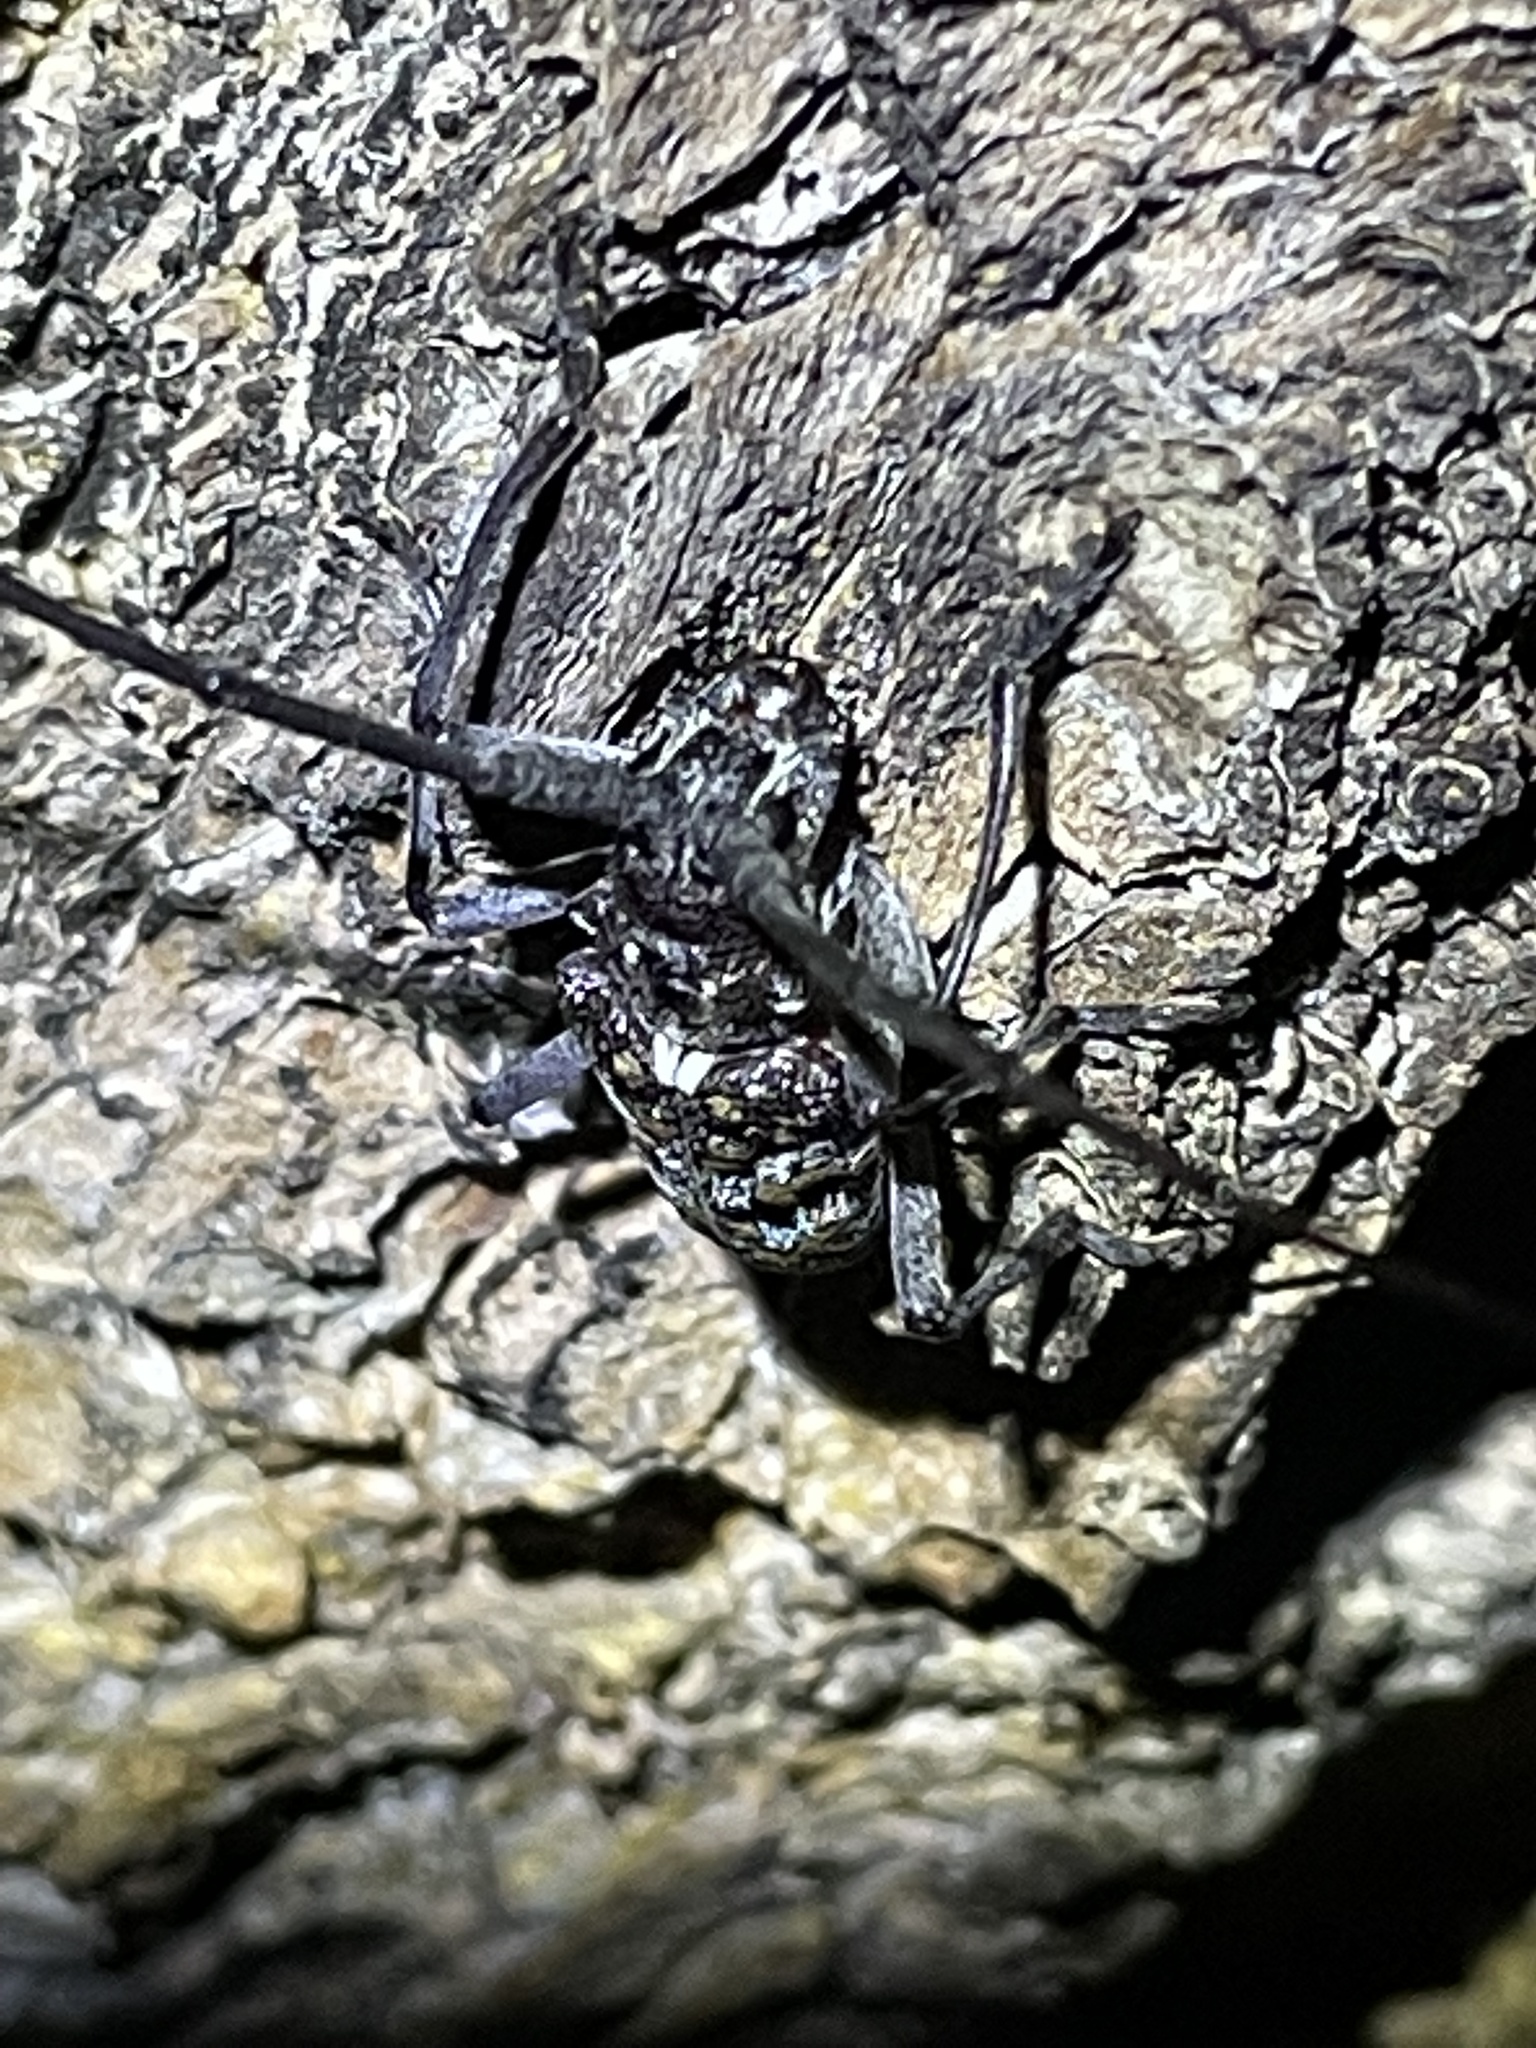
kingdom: Animalia
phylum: Arthropoda
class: Insecta
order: Coleoptera
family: Cerambycidae
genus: Monochamus
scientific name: Monochamus clamator
